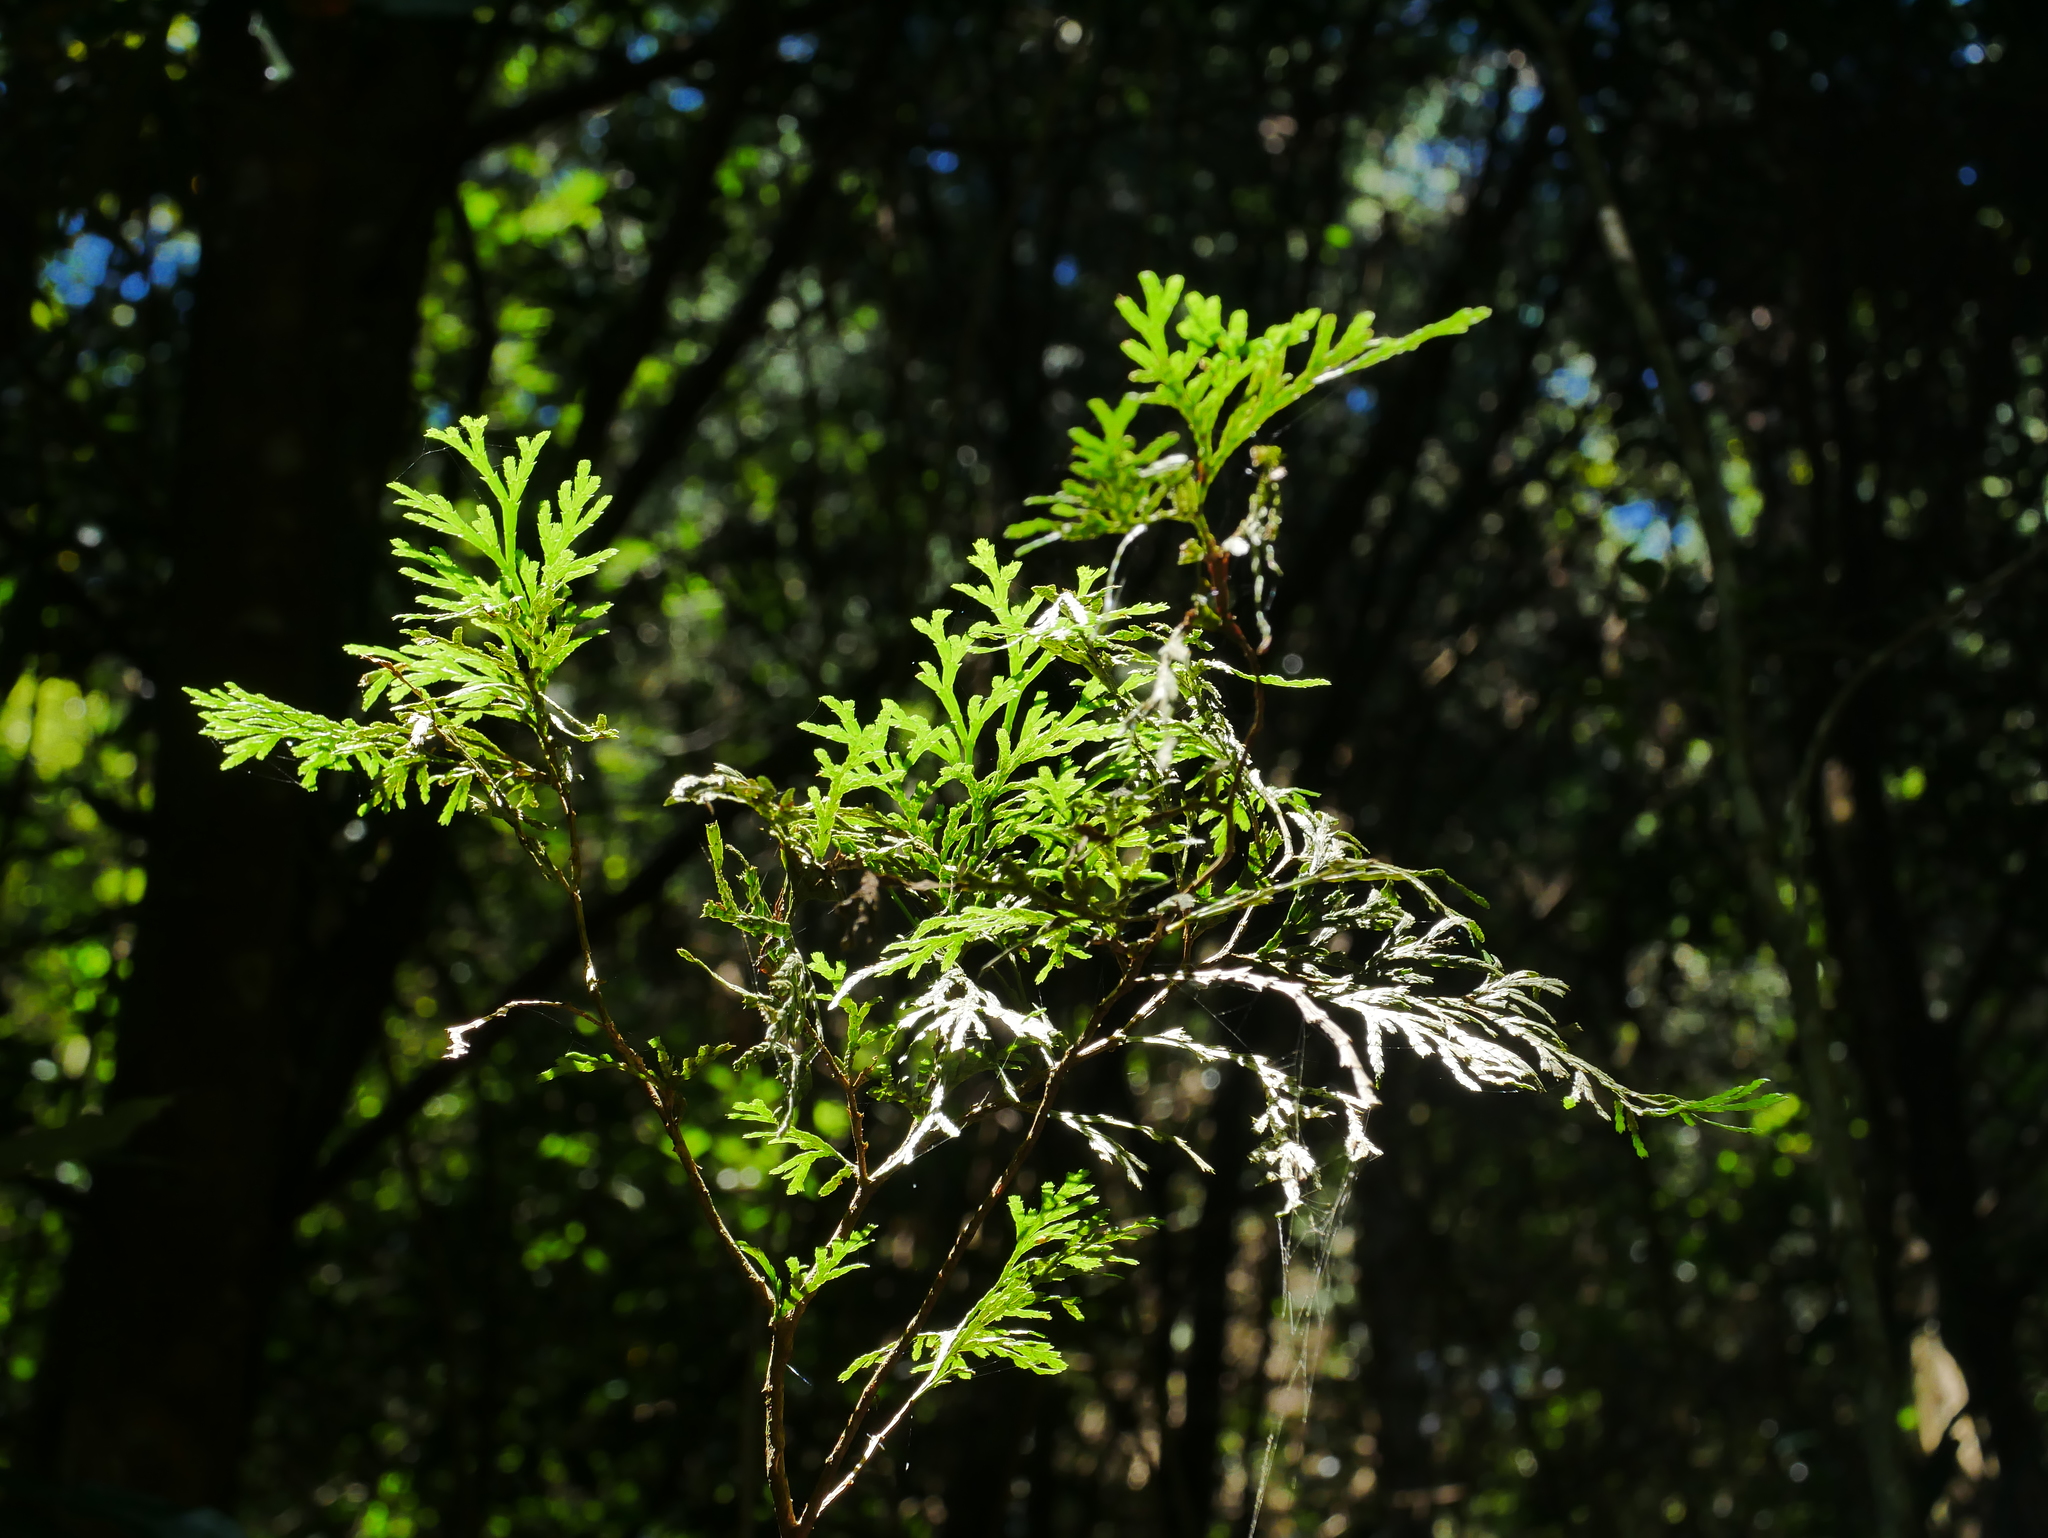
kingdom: Plantae
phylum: Tracheophyta
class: Pinopsida
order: Pinales
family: Cupressaceae
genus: Calocedrus
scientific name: Calocedrus formosana
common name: Taiwan incense-cedar
